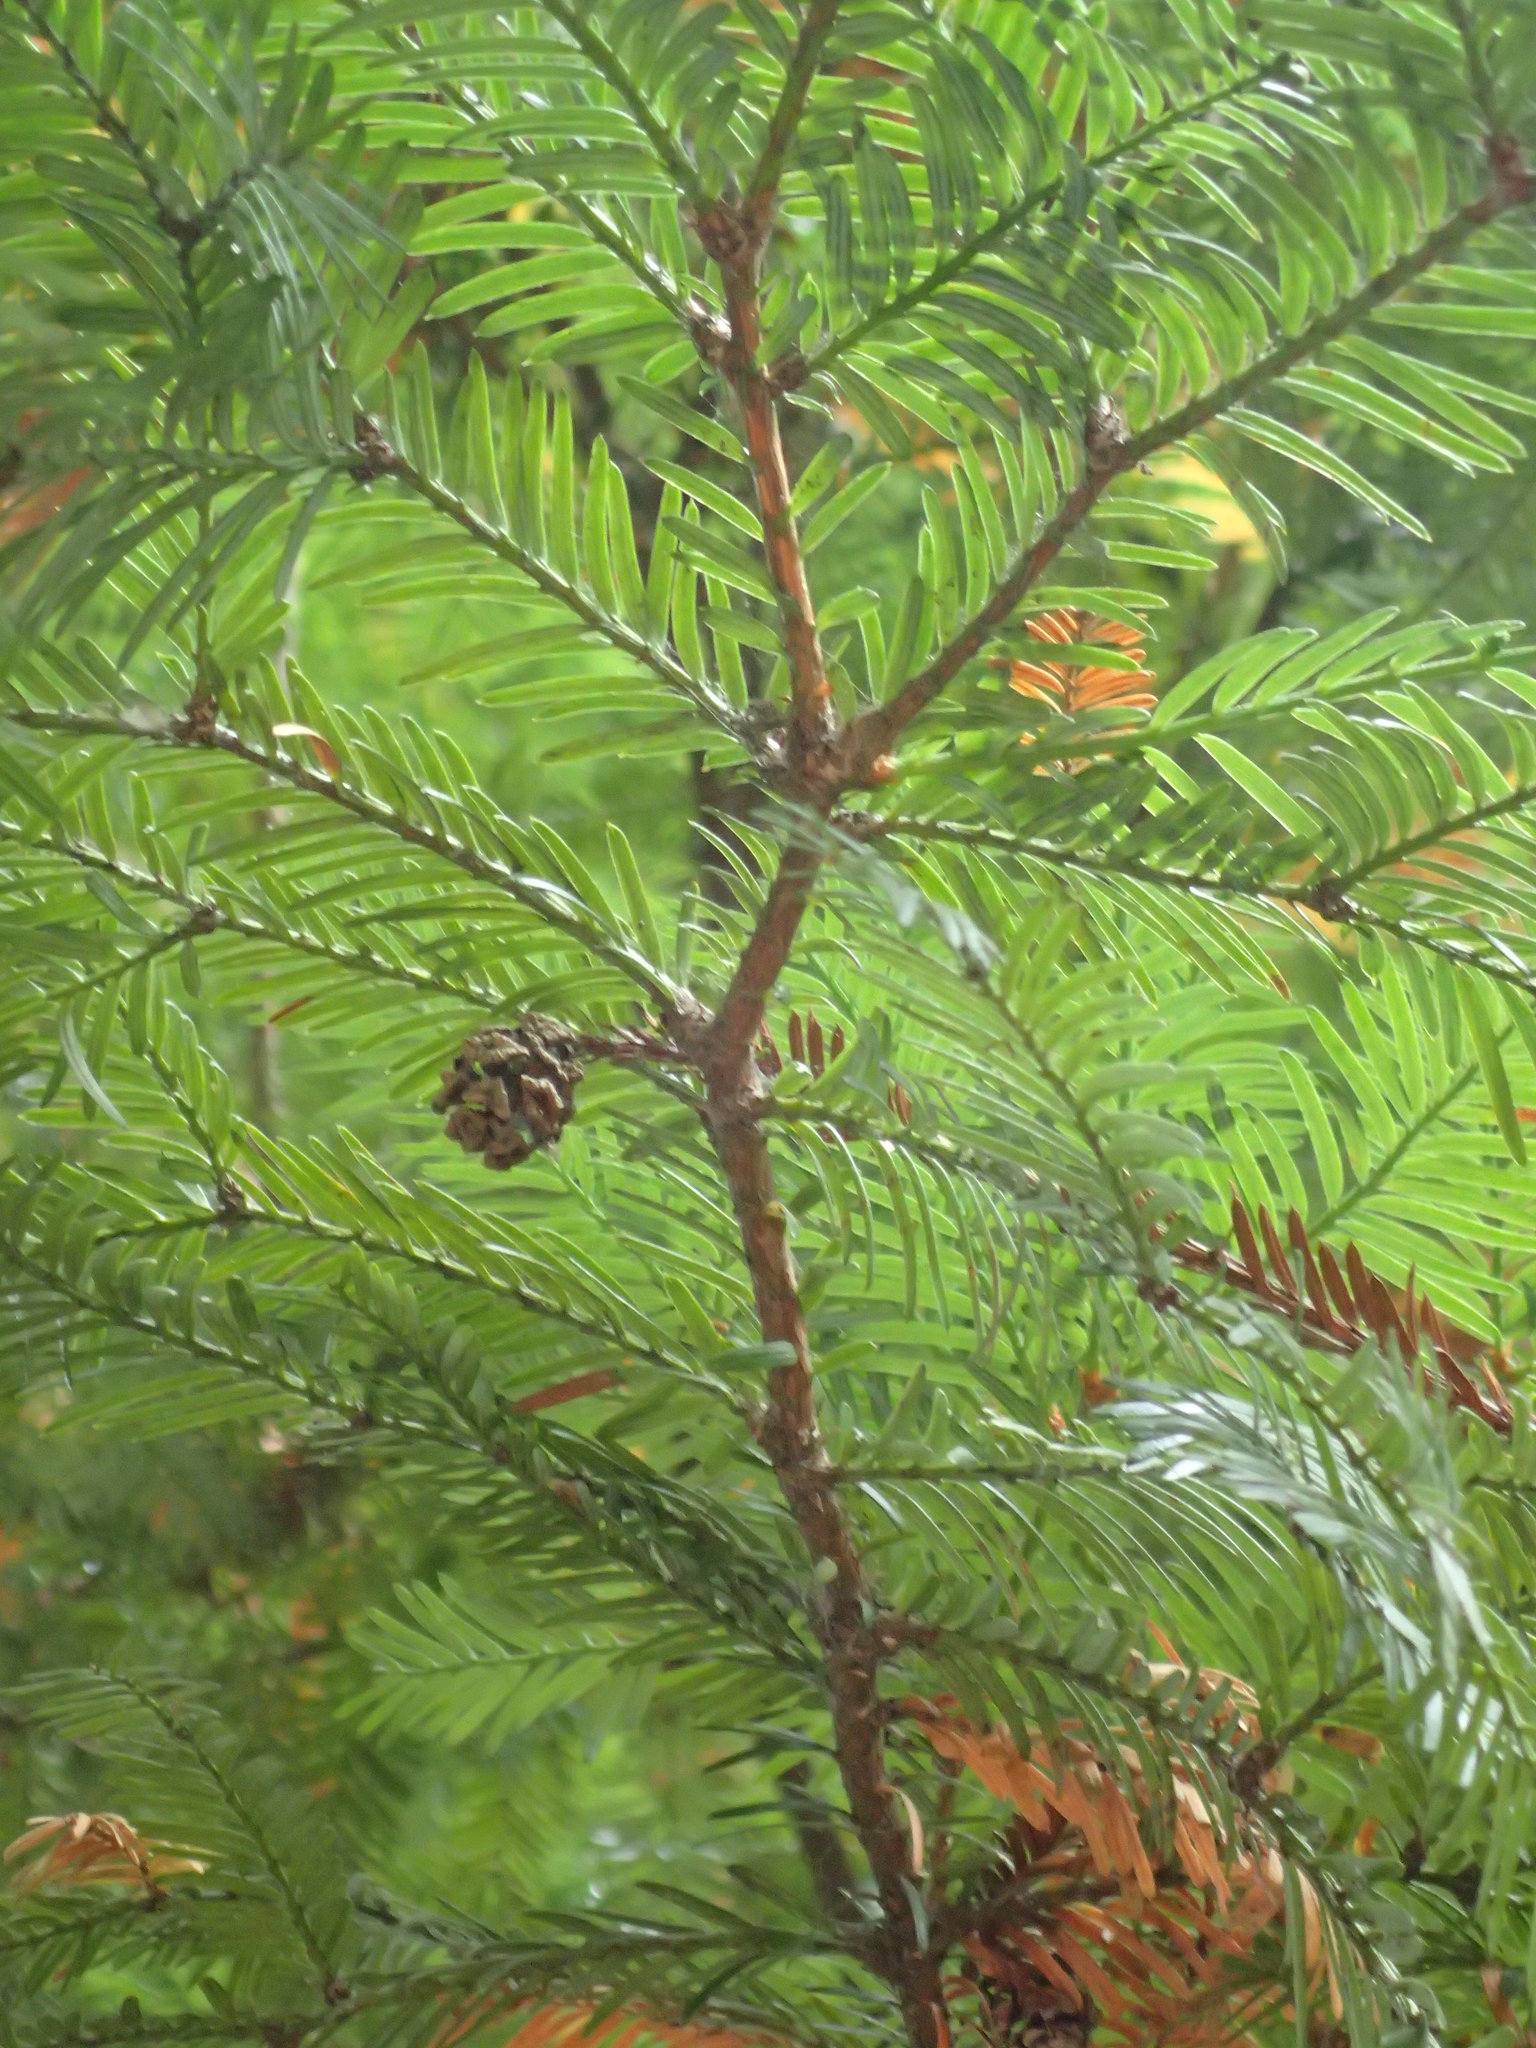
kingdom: Plantae
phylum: Tracheophyta
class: Pinopsida
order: Pinales
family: Cupressaceae
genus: Sequoia
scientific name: Sequoia sempervirens
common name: Coast redwood
